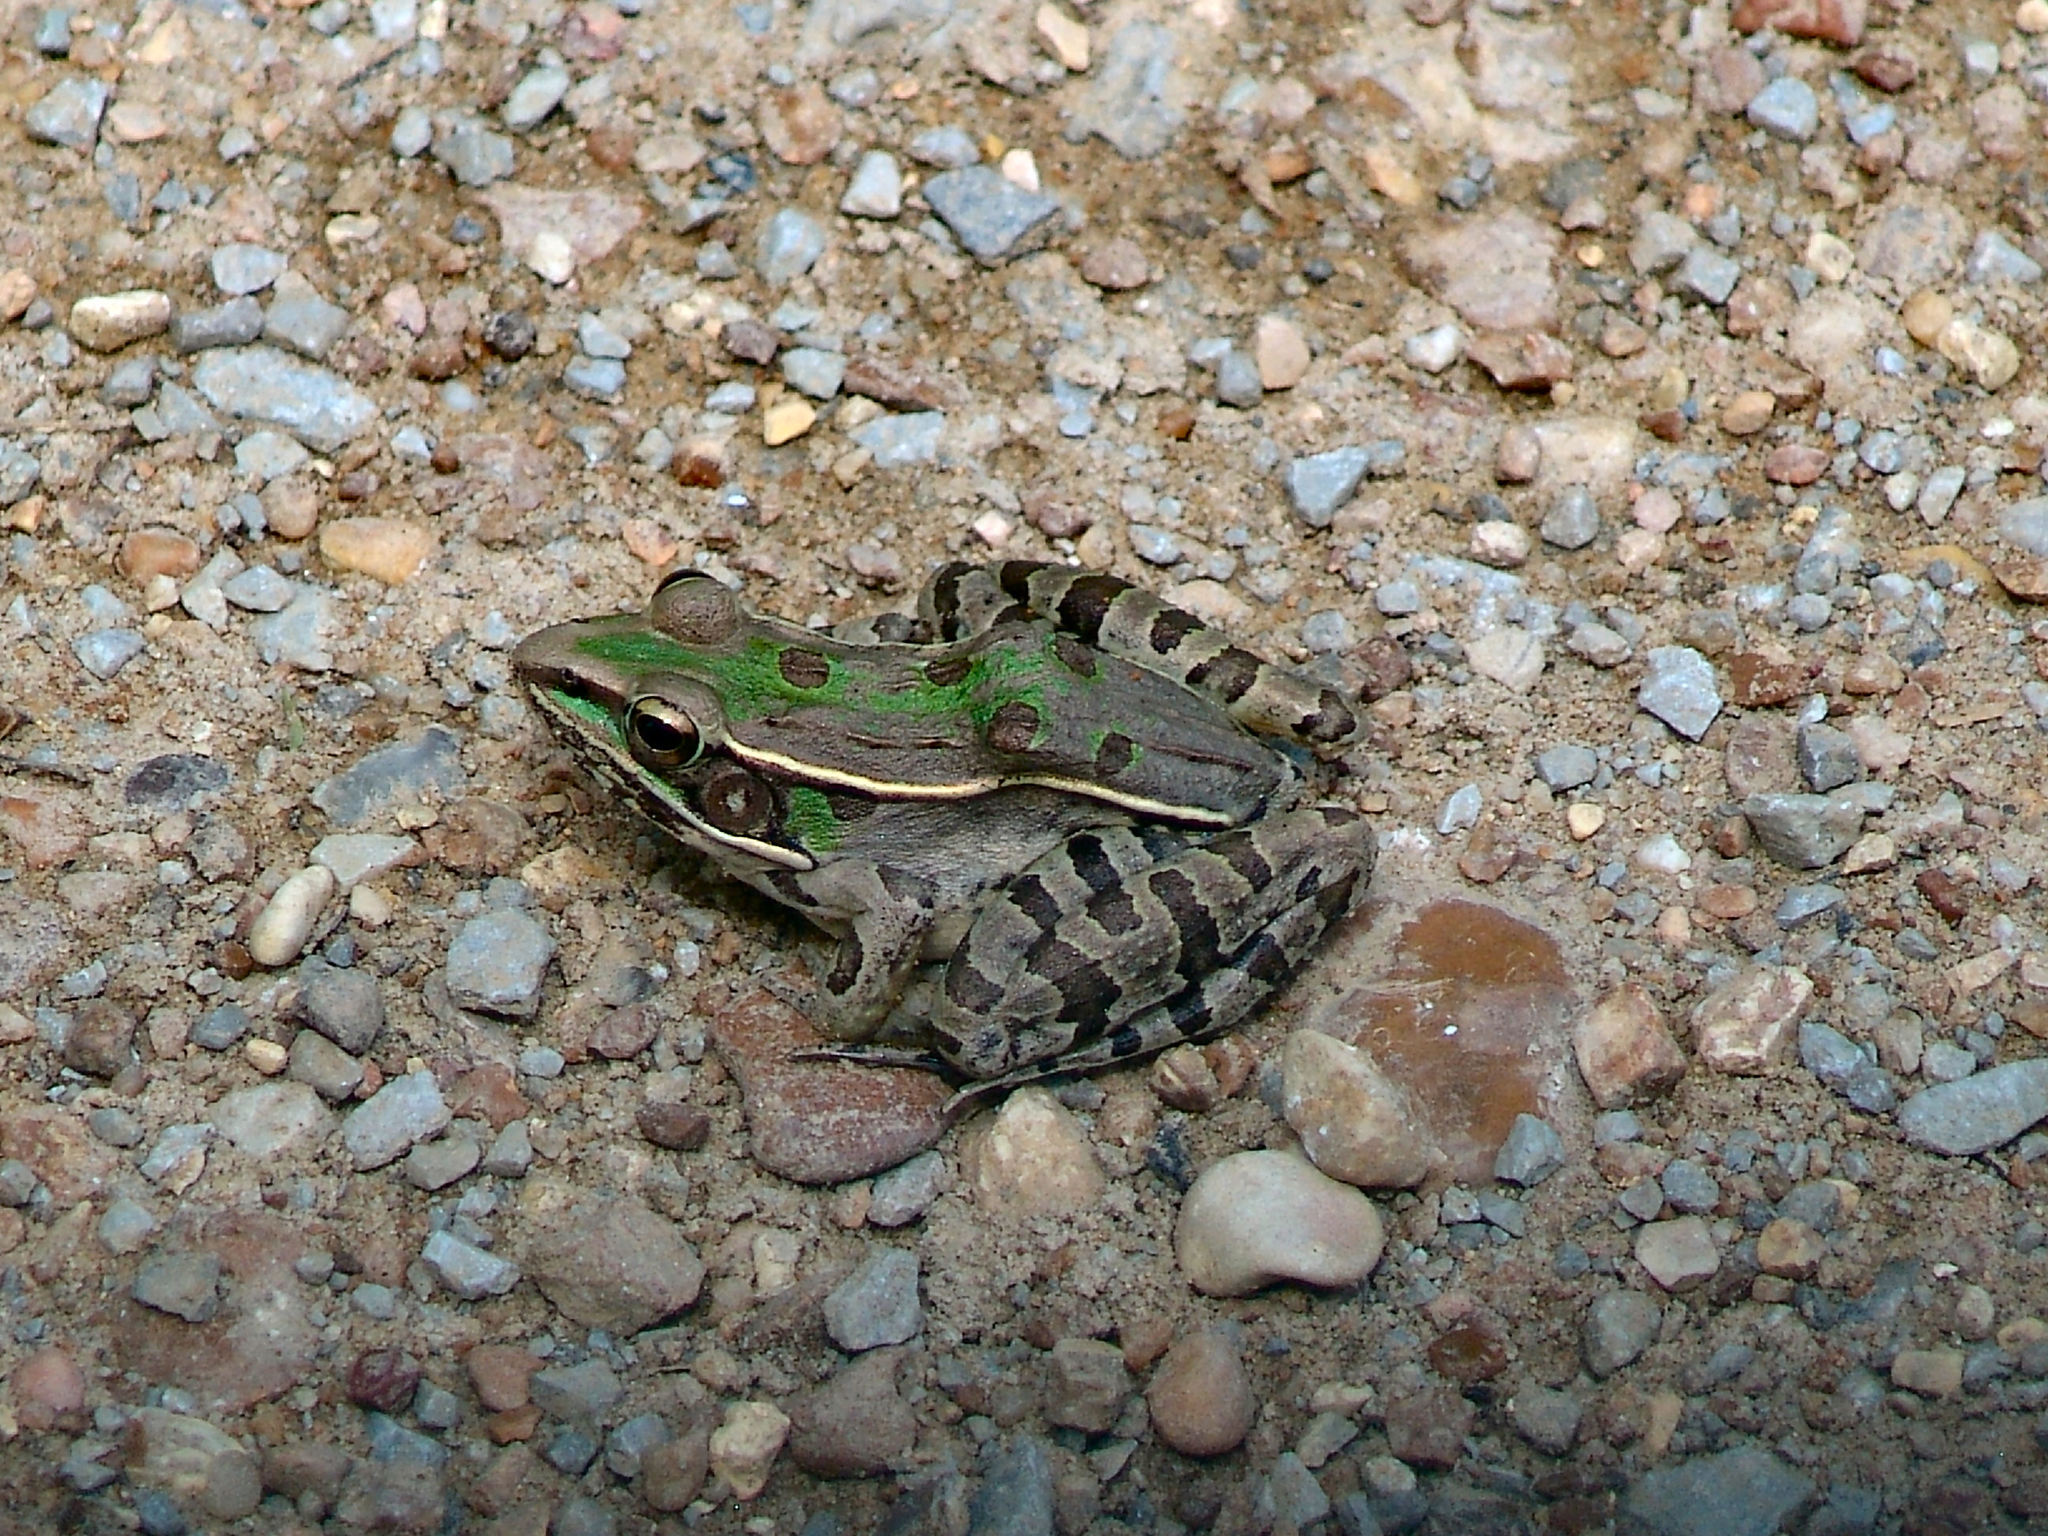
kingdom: Animalia
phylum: Chordata
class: Amphibia
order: Anura
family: Ranidae
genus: Lithobates
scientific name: Lithobates sphenocephalus
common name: Southern leopard frog
